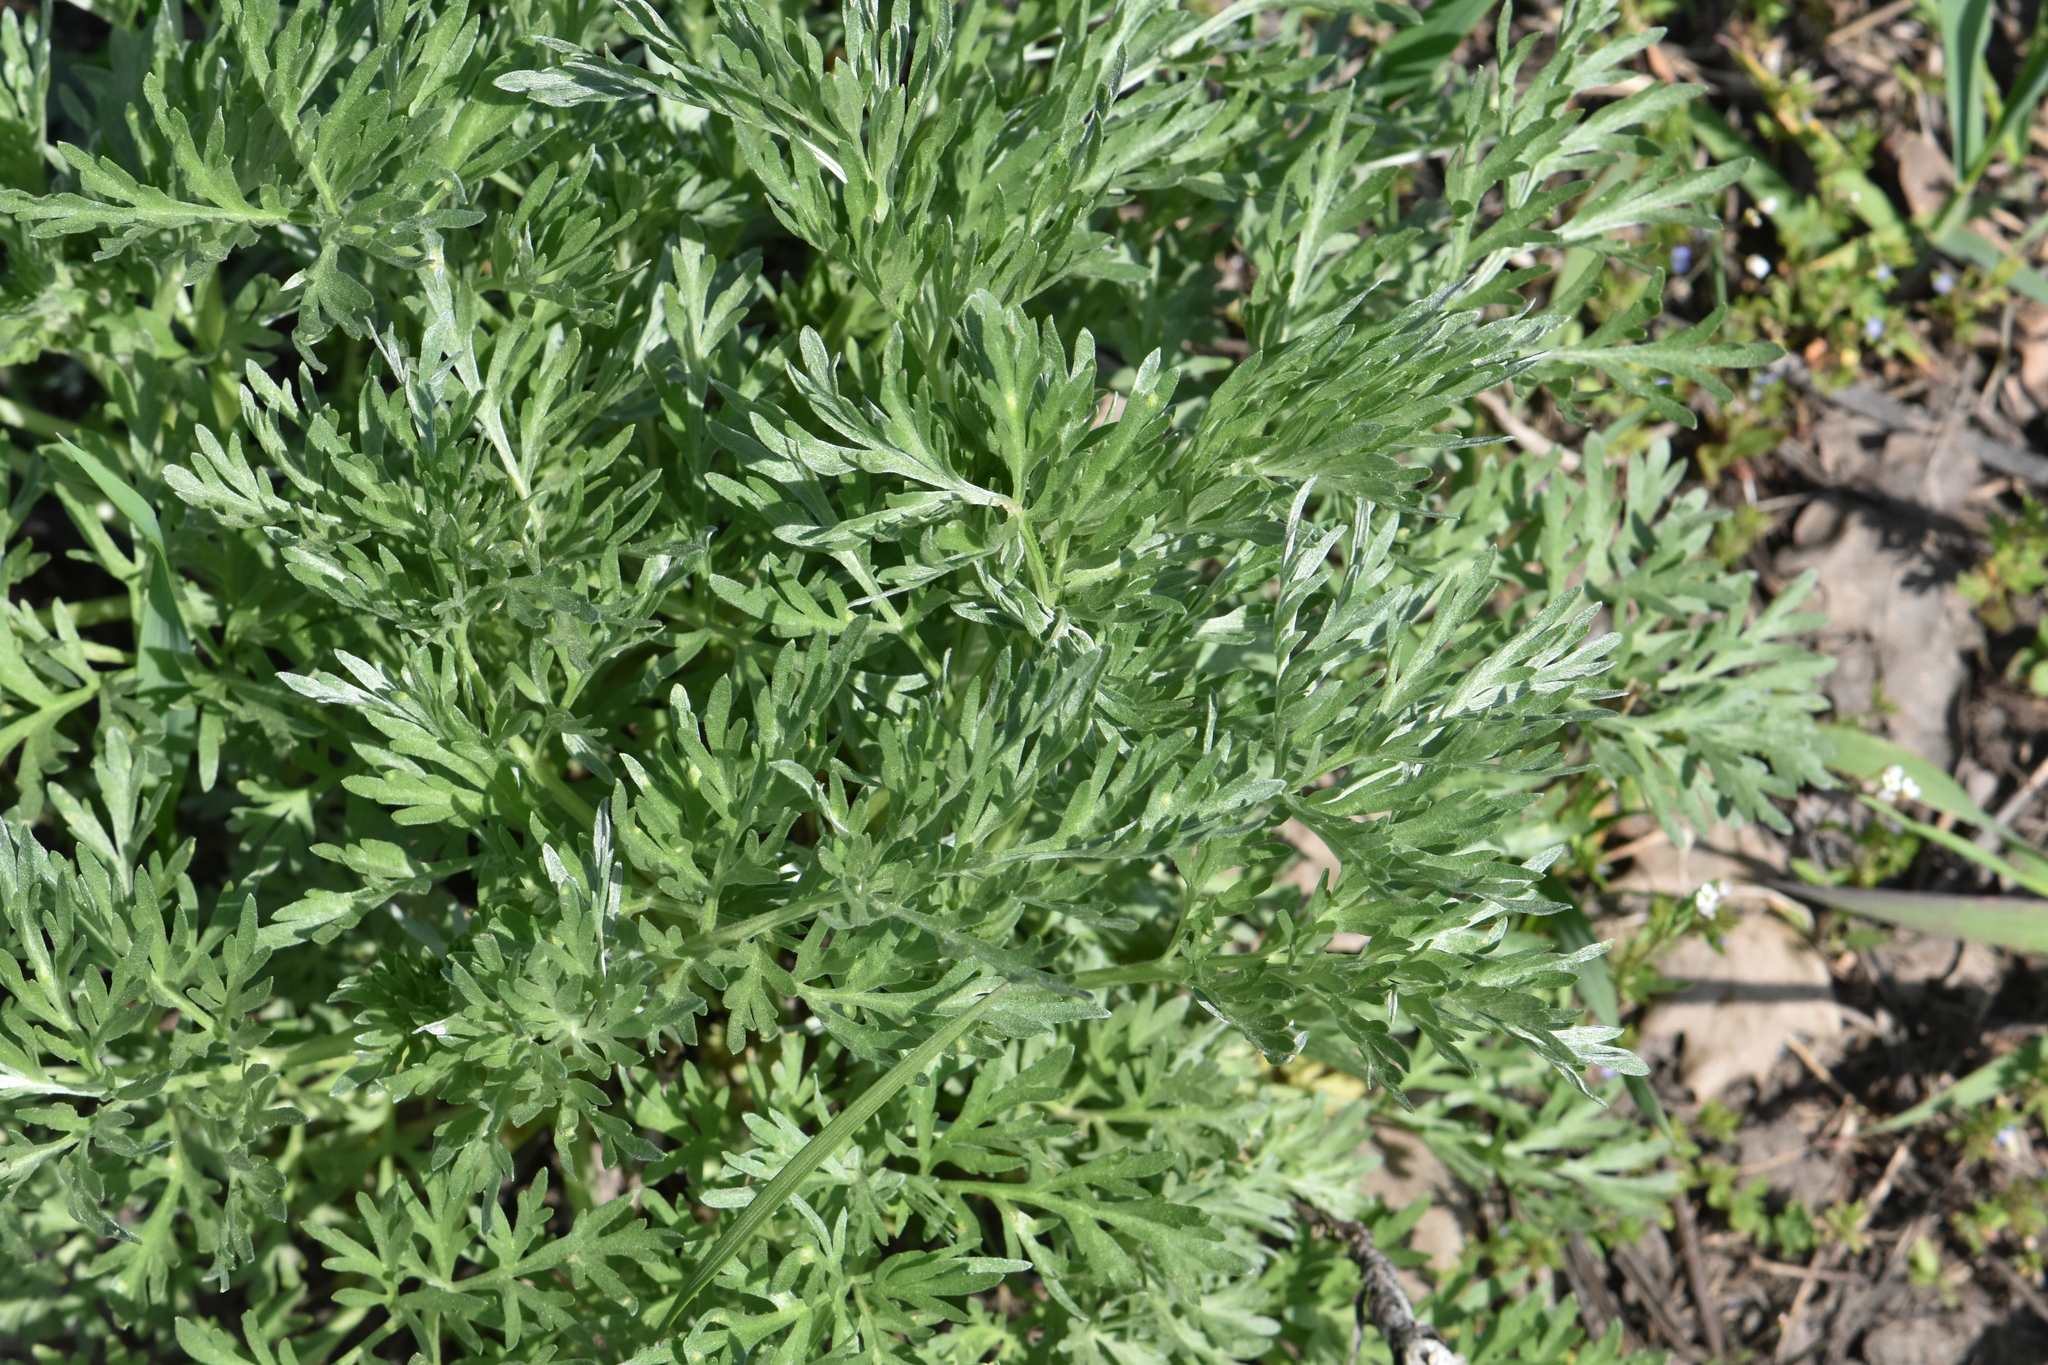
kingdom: Plantae
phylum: Tracheophyta
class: Magnoliopsida
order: Asterales
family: Asteraceae
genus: Artemisia
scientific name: Artemisia absinthium
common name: Wormwood
